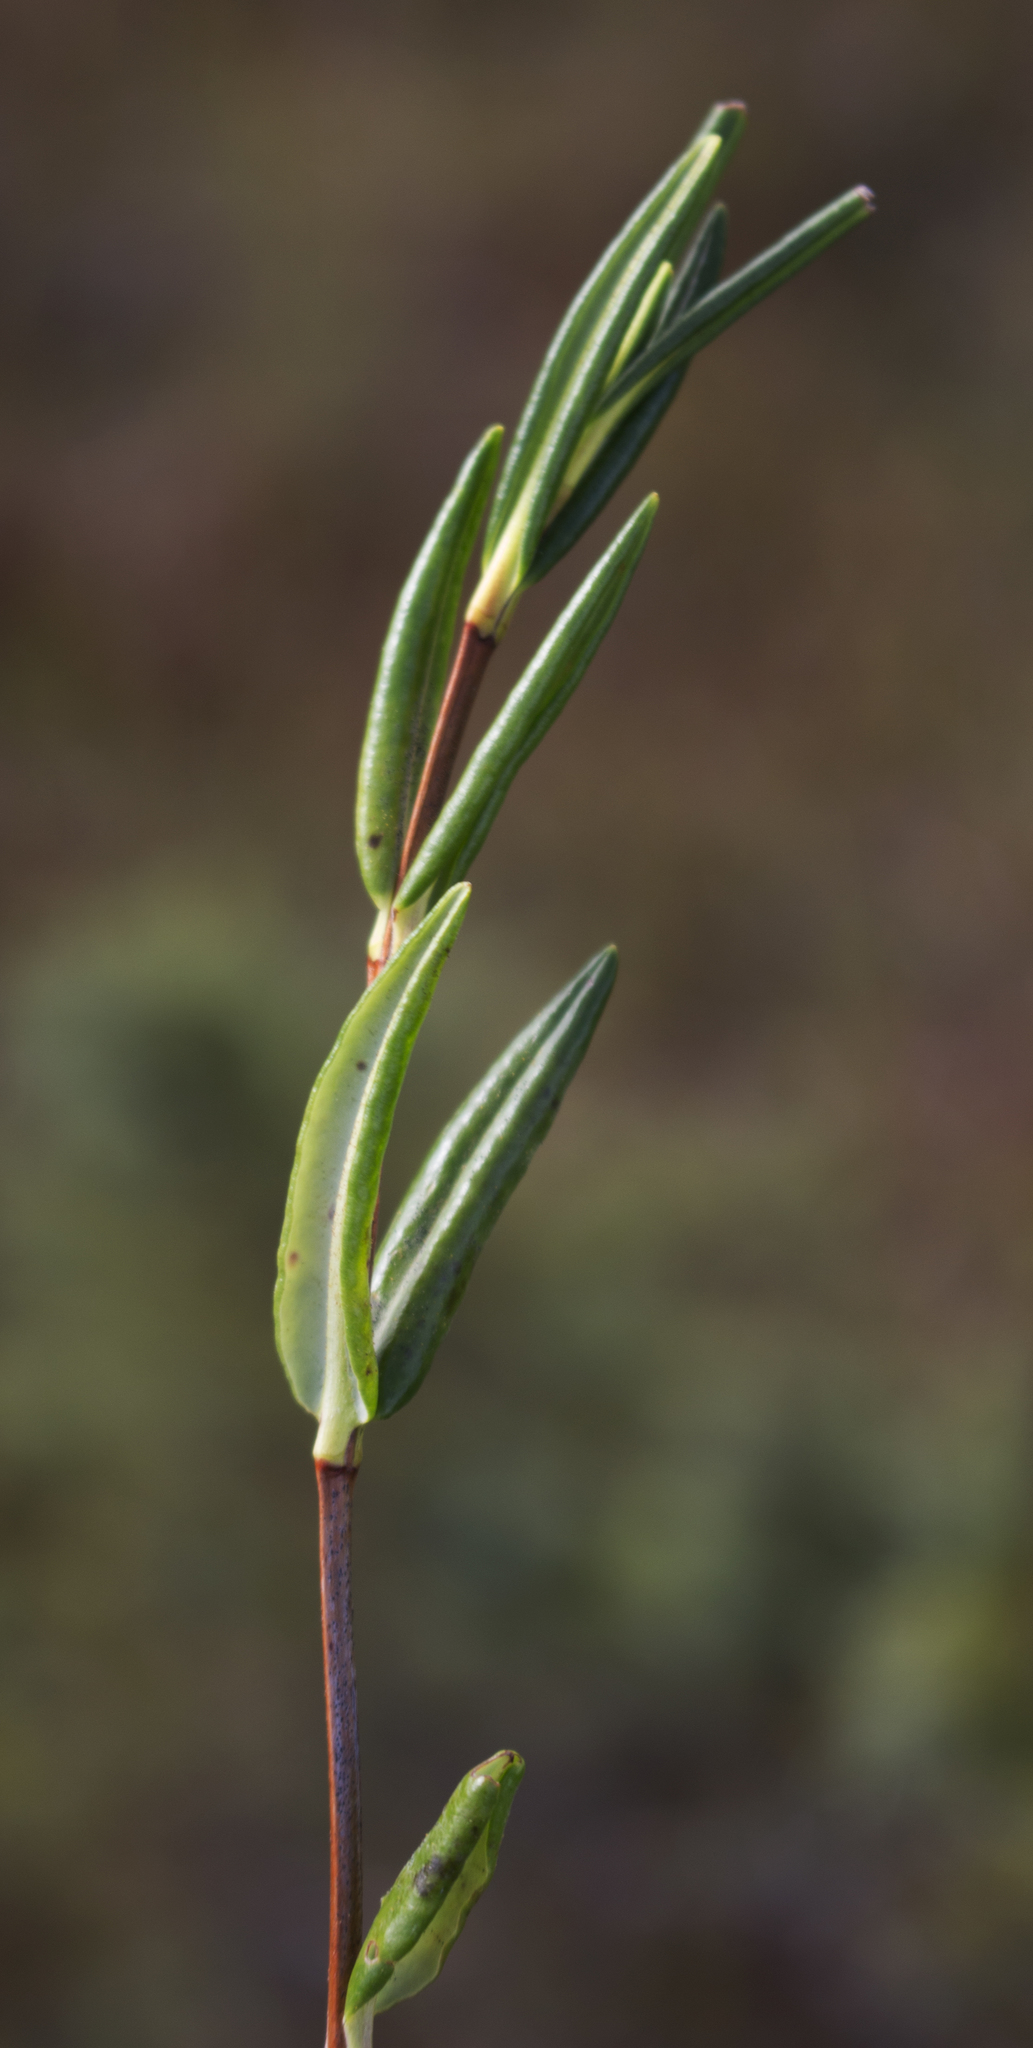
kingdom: Plantae
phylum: Tracheophyta
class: Magnoliopsida
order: Ericales
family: Ericaceae
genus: Kalmia
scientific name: Kalmia polifolia
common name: Bog-laurel
